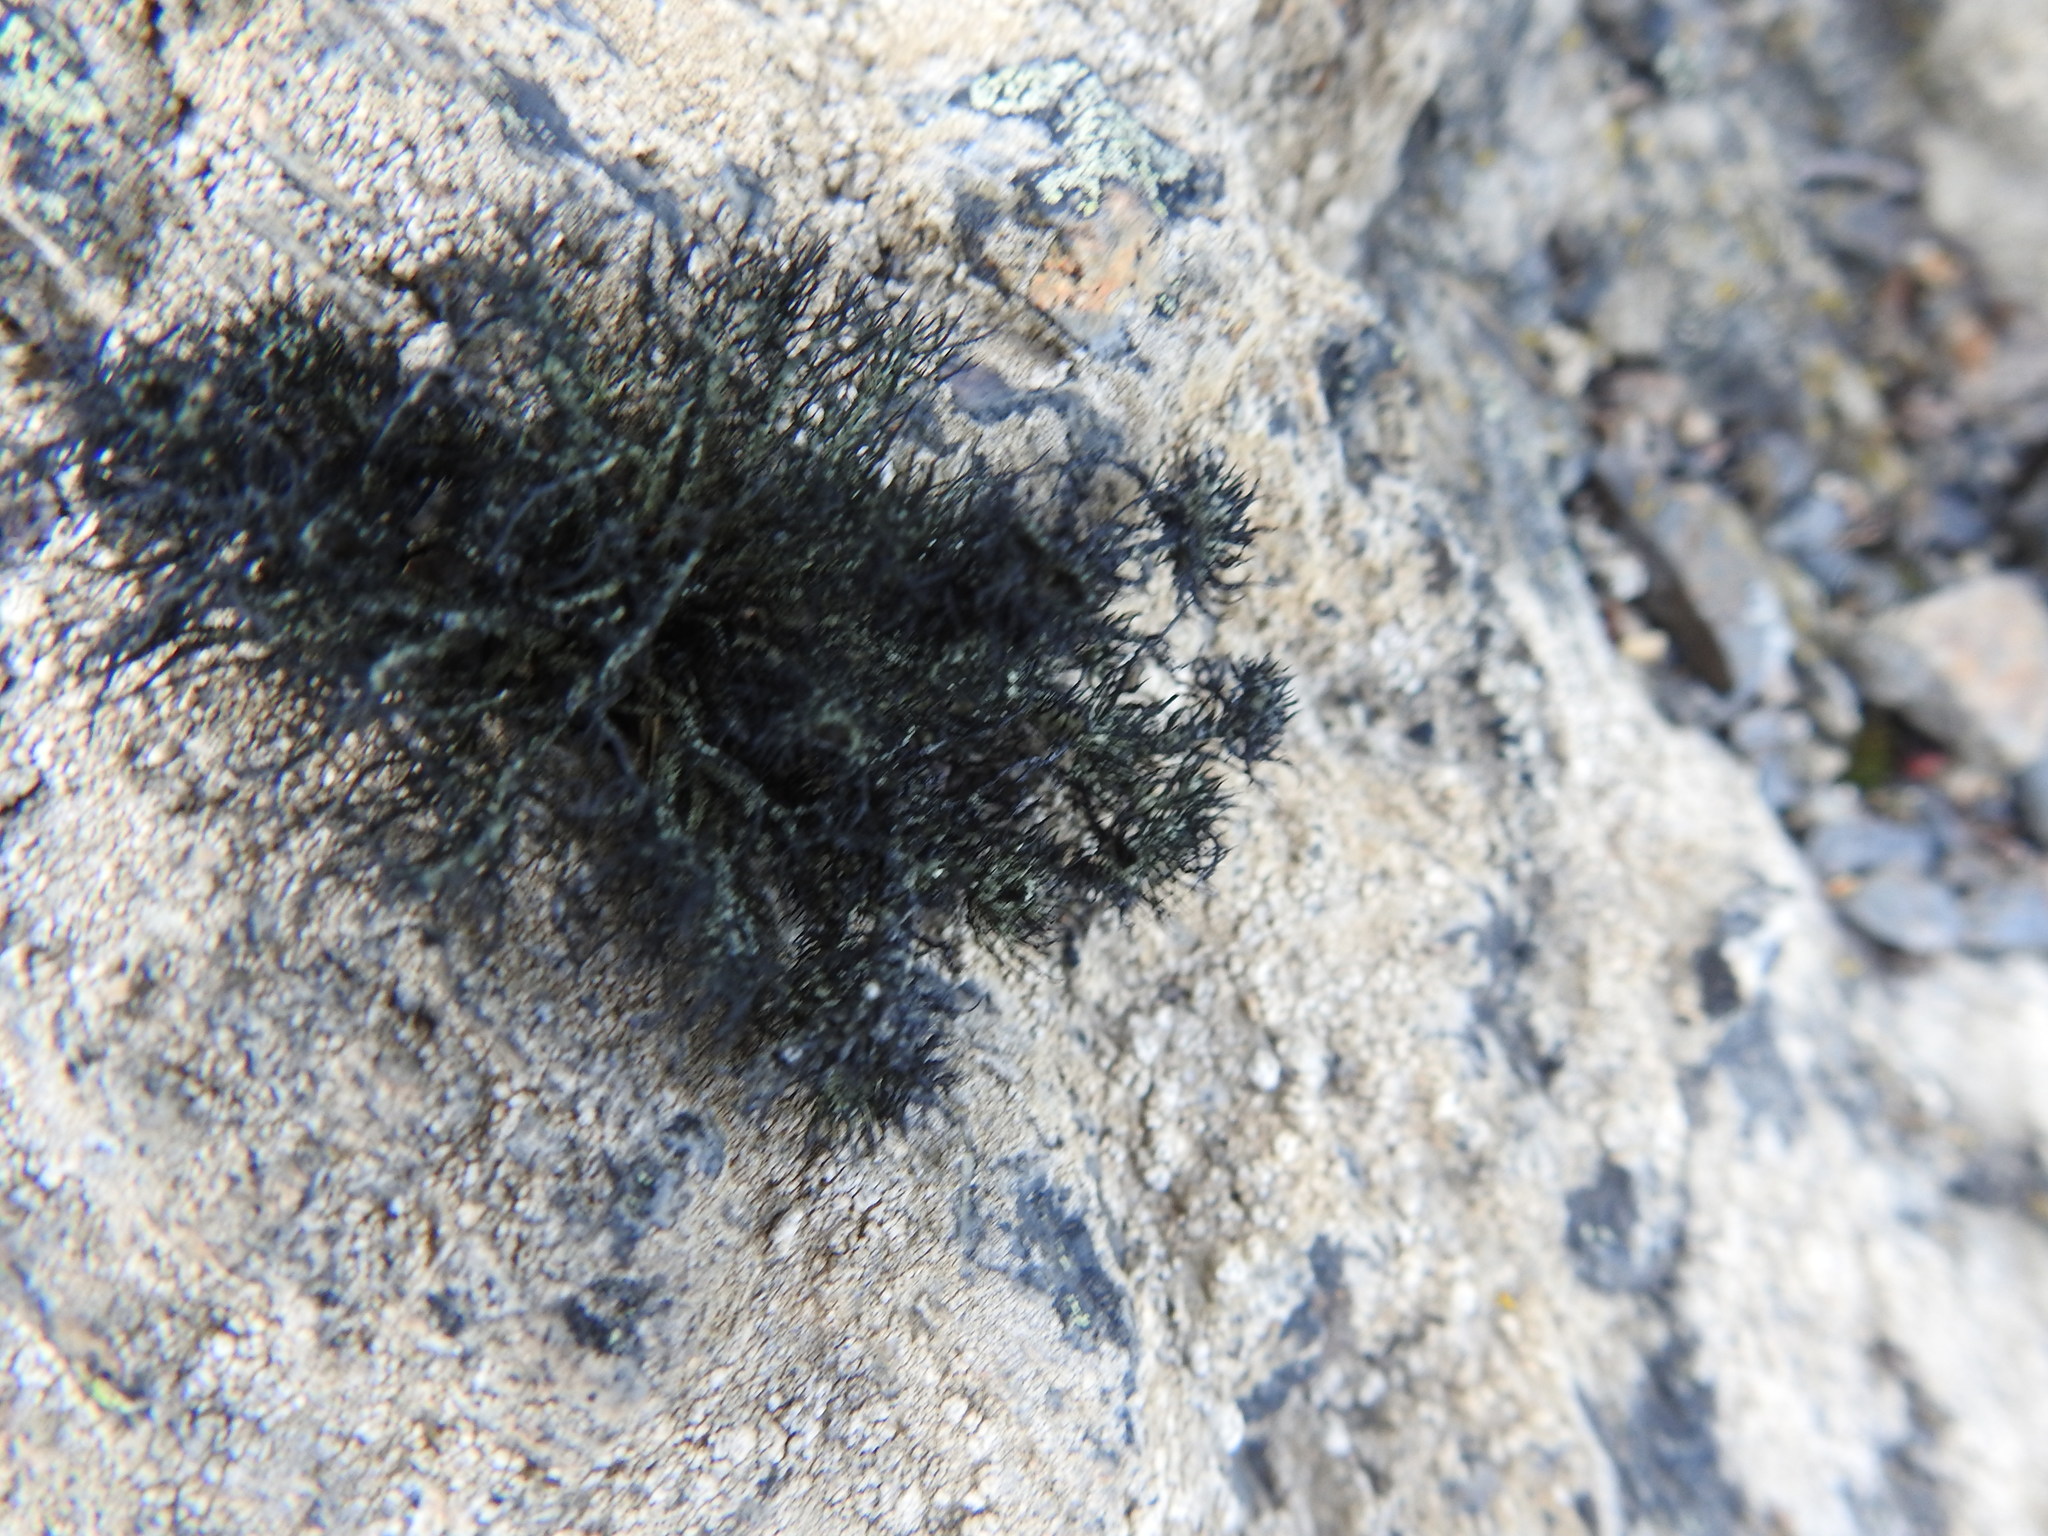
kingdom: Fungi
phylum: Ascomycota
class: Lecanoromycetes
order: Lecanorales
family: Parmeliaceae
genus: Usnea
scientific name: Usnea trachycarpa
